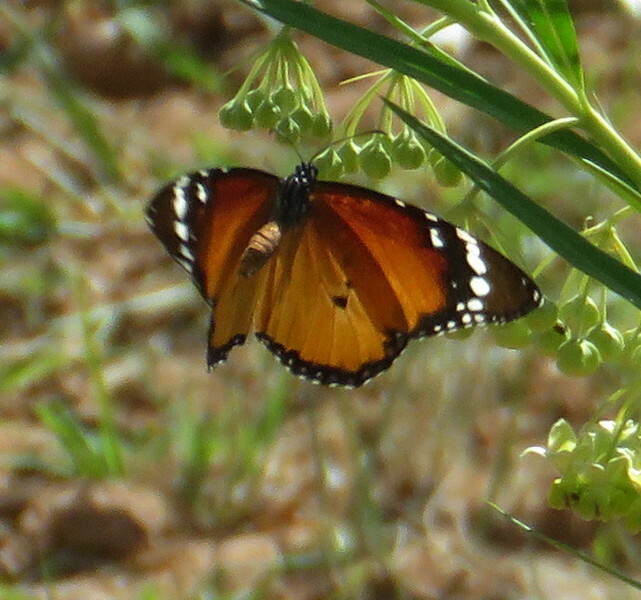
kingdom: Animalia
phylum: Arthropoda
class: Insecta
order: Lepidoptera
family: Nymphalidae
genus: Danaus
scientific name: Danaus chrysippus
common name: Plain tiger
